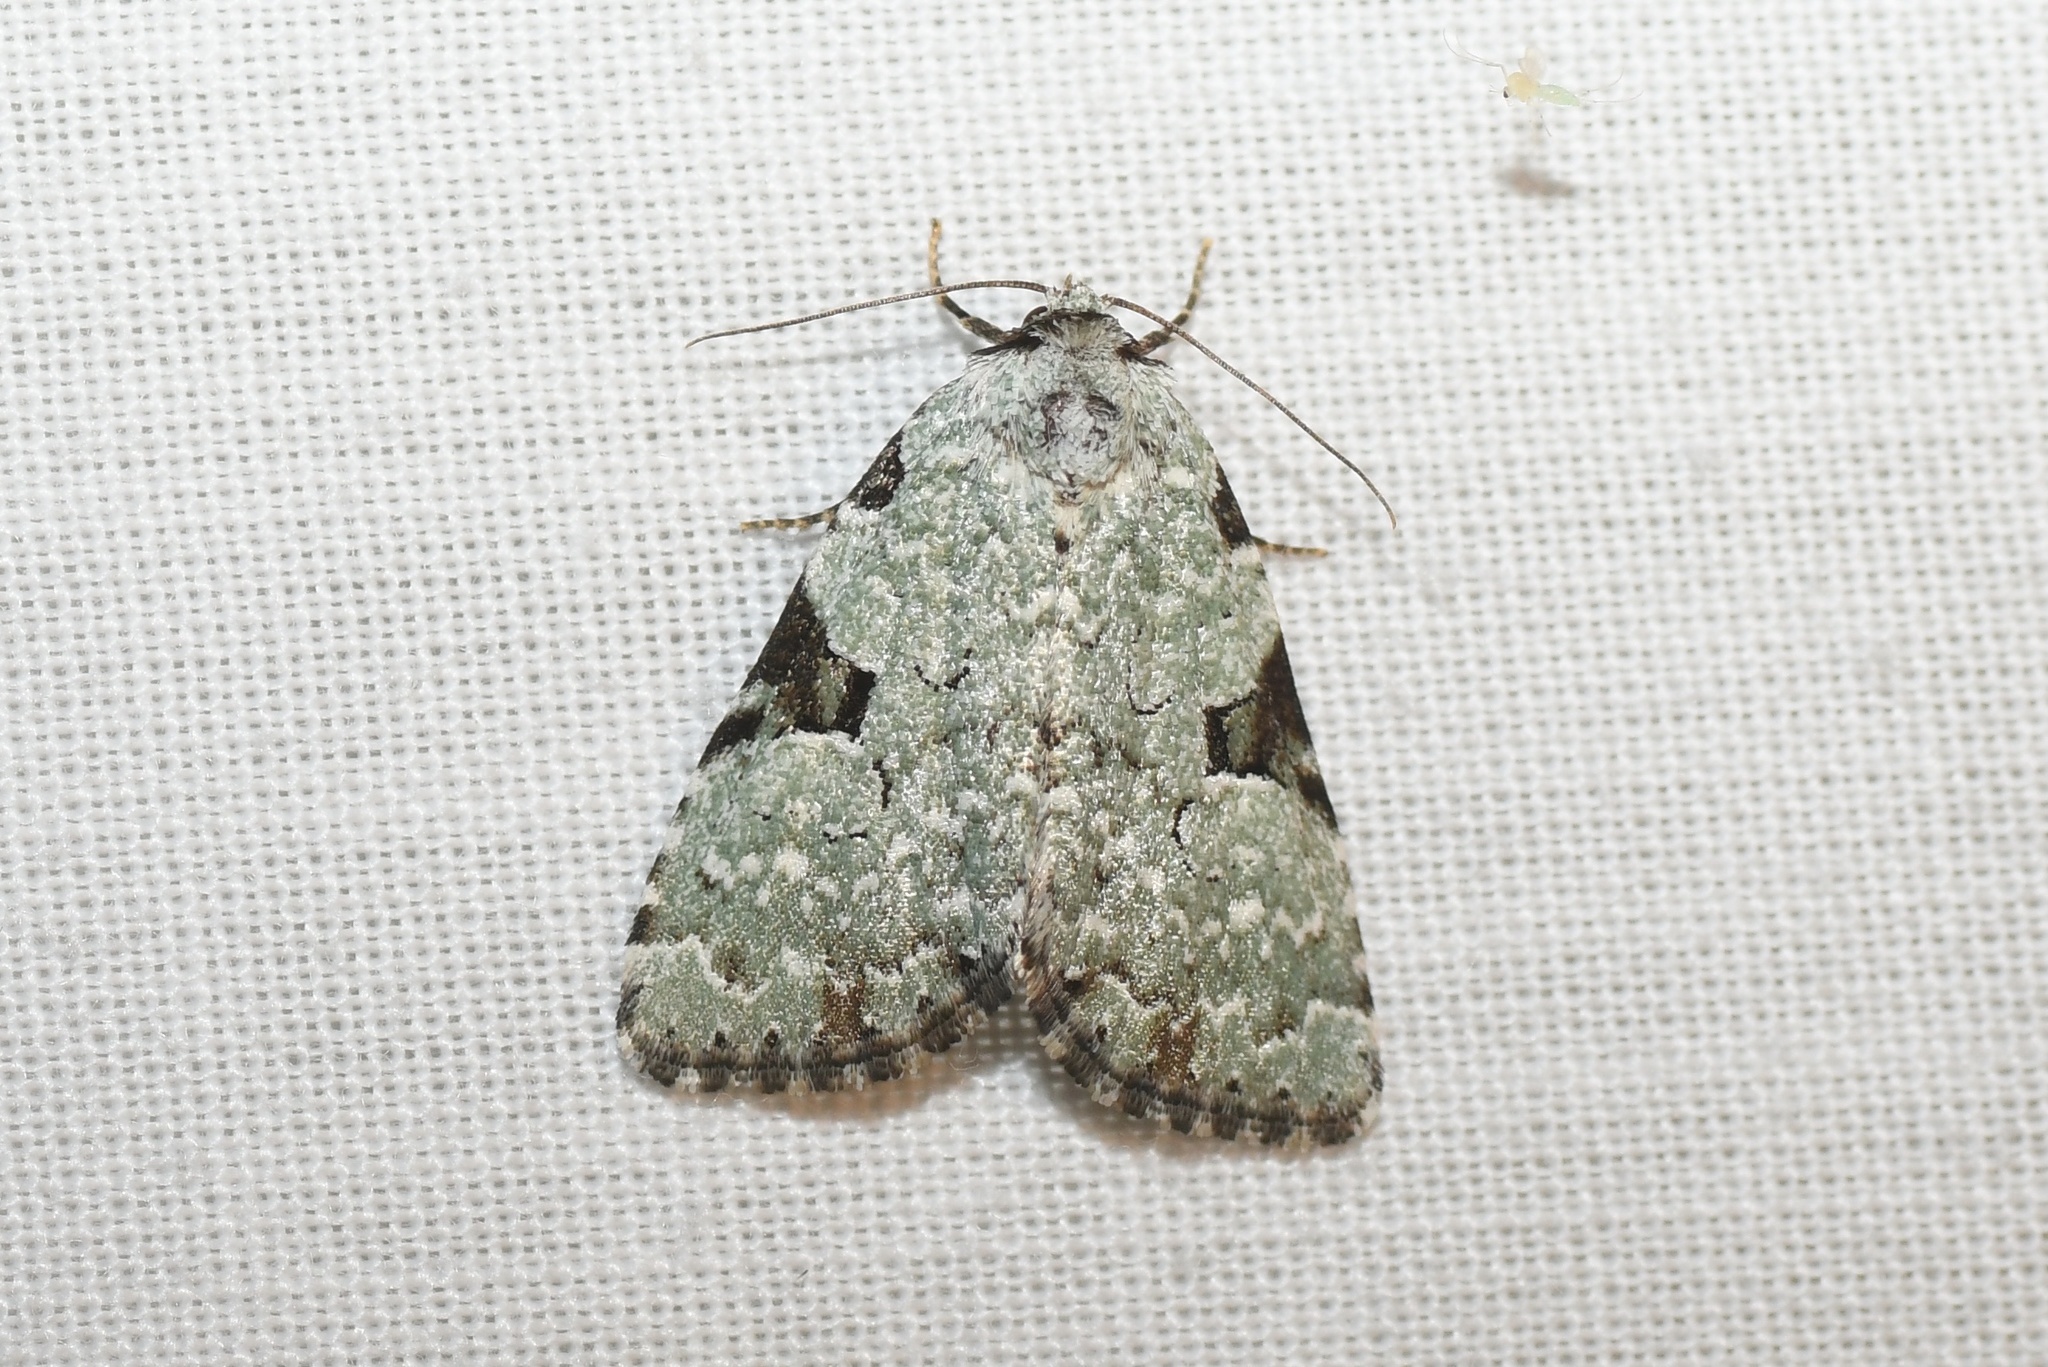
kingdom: Animalia
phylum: Arthropoda
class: Insecta
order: Lepidoptera
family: Noctuidae
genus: Leuconycta
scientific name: Leuconycta diphteroides
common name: Green leuconycta moth
